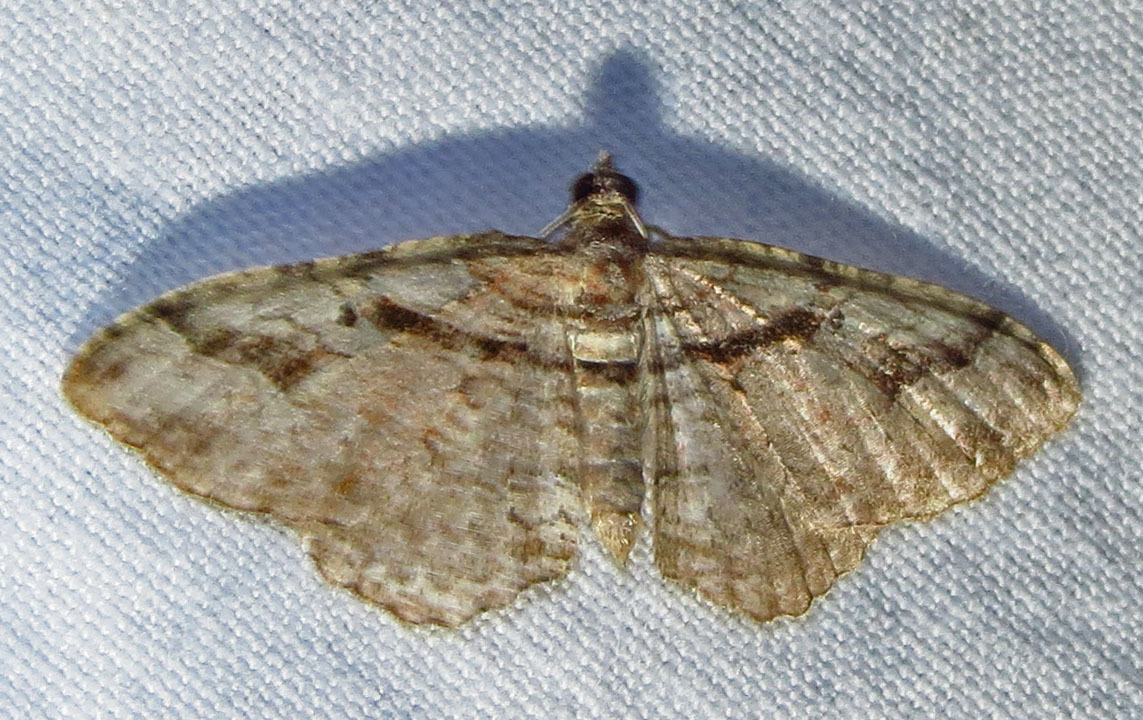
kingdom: Animalia
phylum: Arthropoda
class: Insecta
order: Lepidoptera
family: Geometridae
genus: Costaconvexa
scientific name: Costaconvexa centrostrigaria
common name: Bent-line carpet
